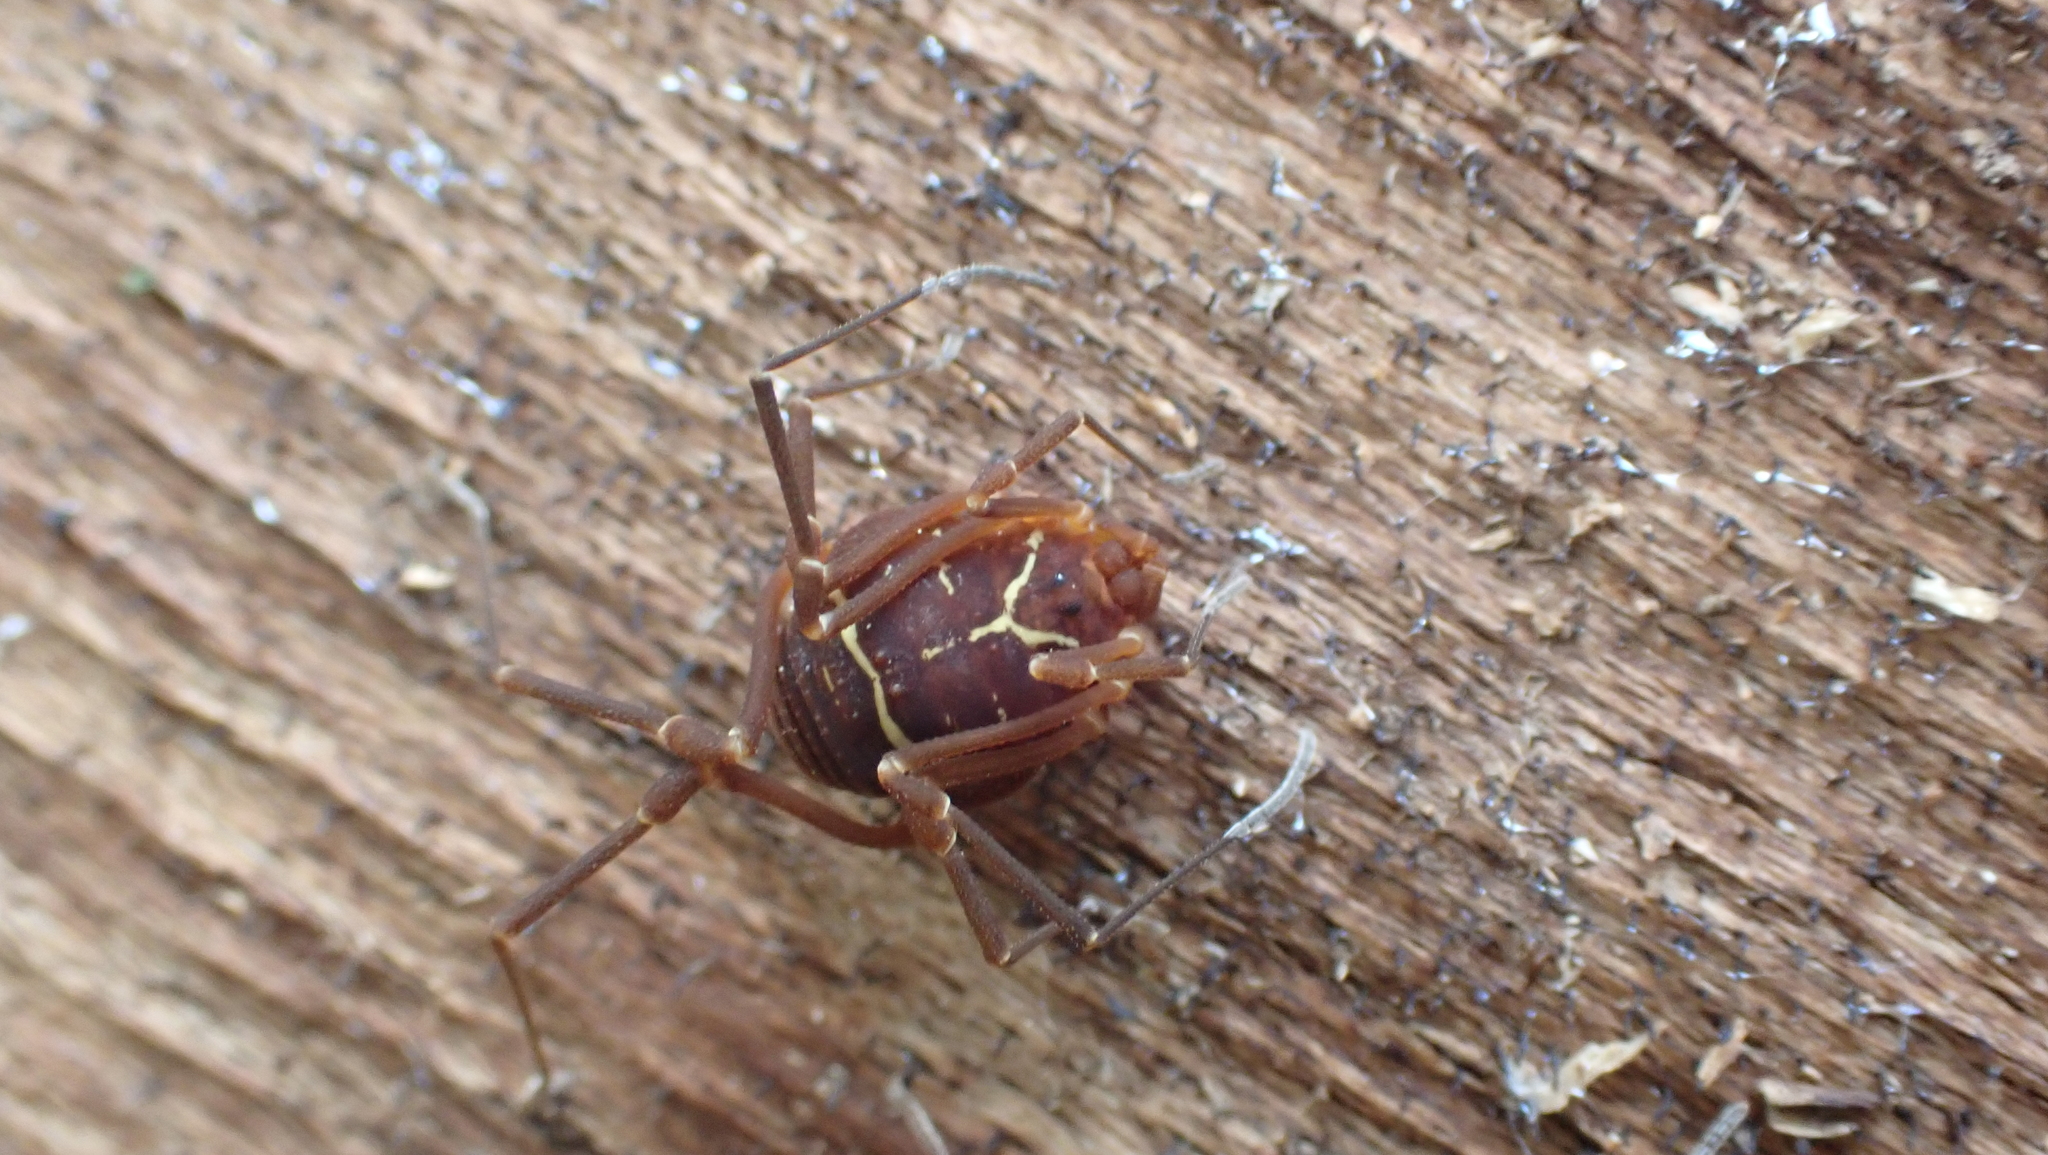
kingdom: Animalia
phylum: Arthropoda
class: Arachnida
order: Opiliones
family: Cosmetidae
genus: Libitioides
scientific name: Libitioides sayi
